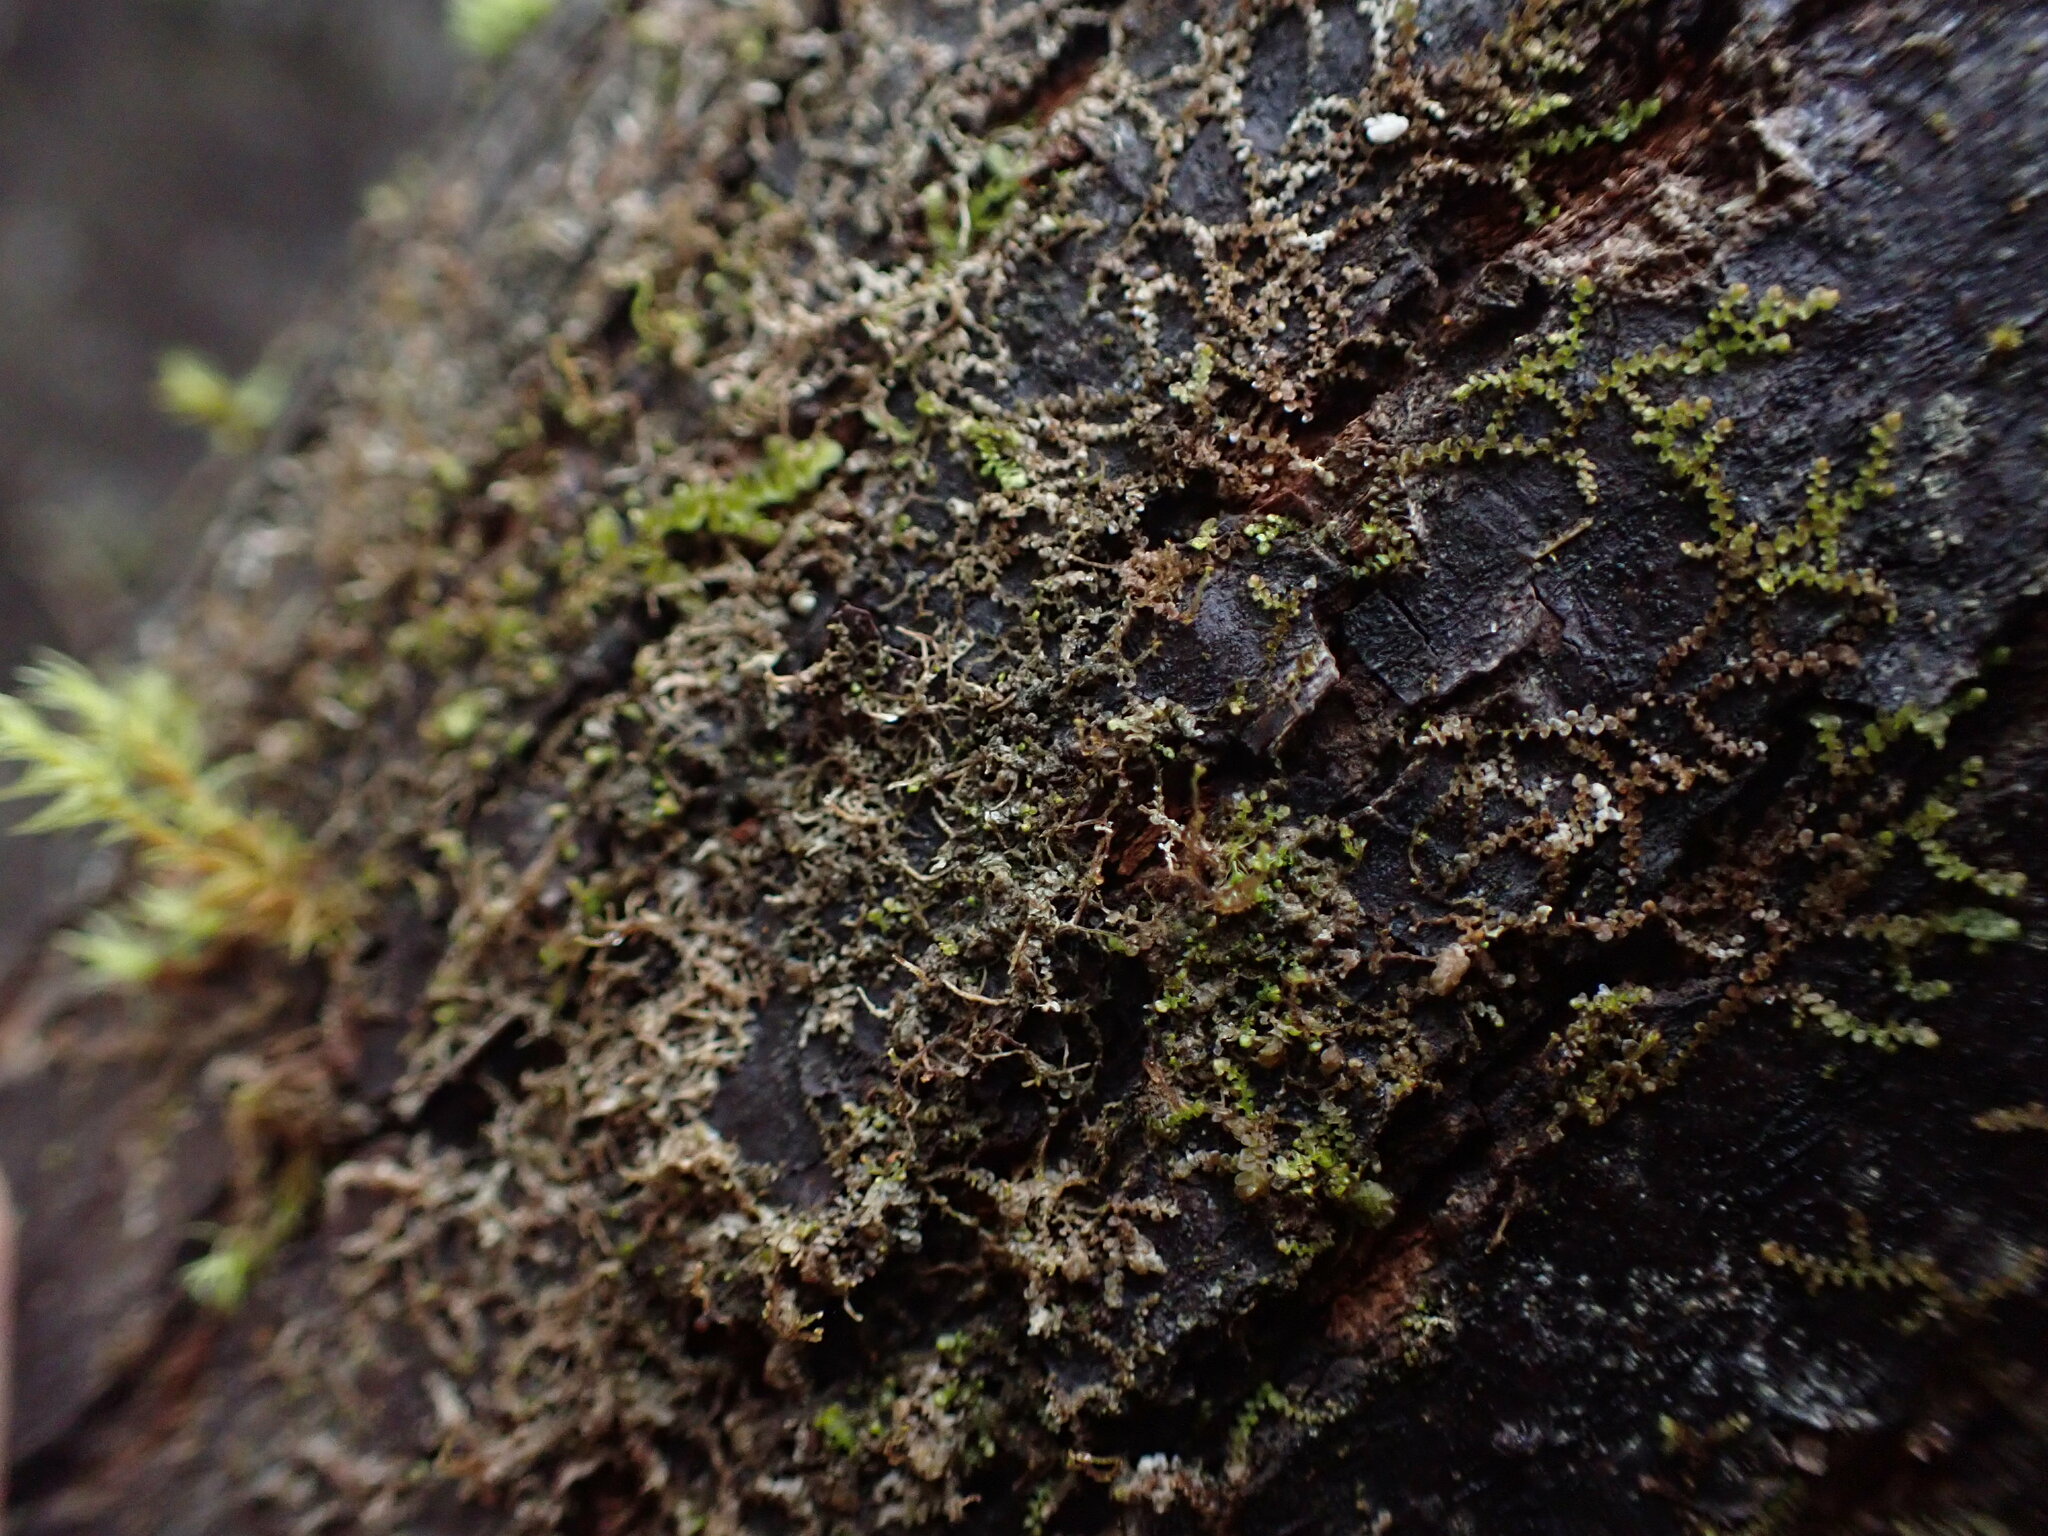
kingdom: Plantae
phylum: Marchantiophyta
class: Jungermanniopsida
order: Porellales
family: Frullaniaceae
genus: Frullania
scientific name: Frullania bolanderi
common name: Bolander s scalewort
